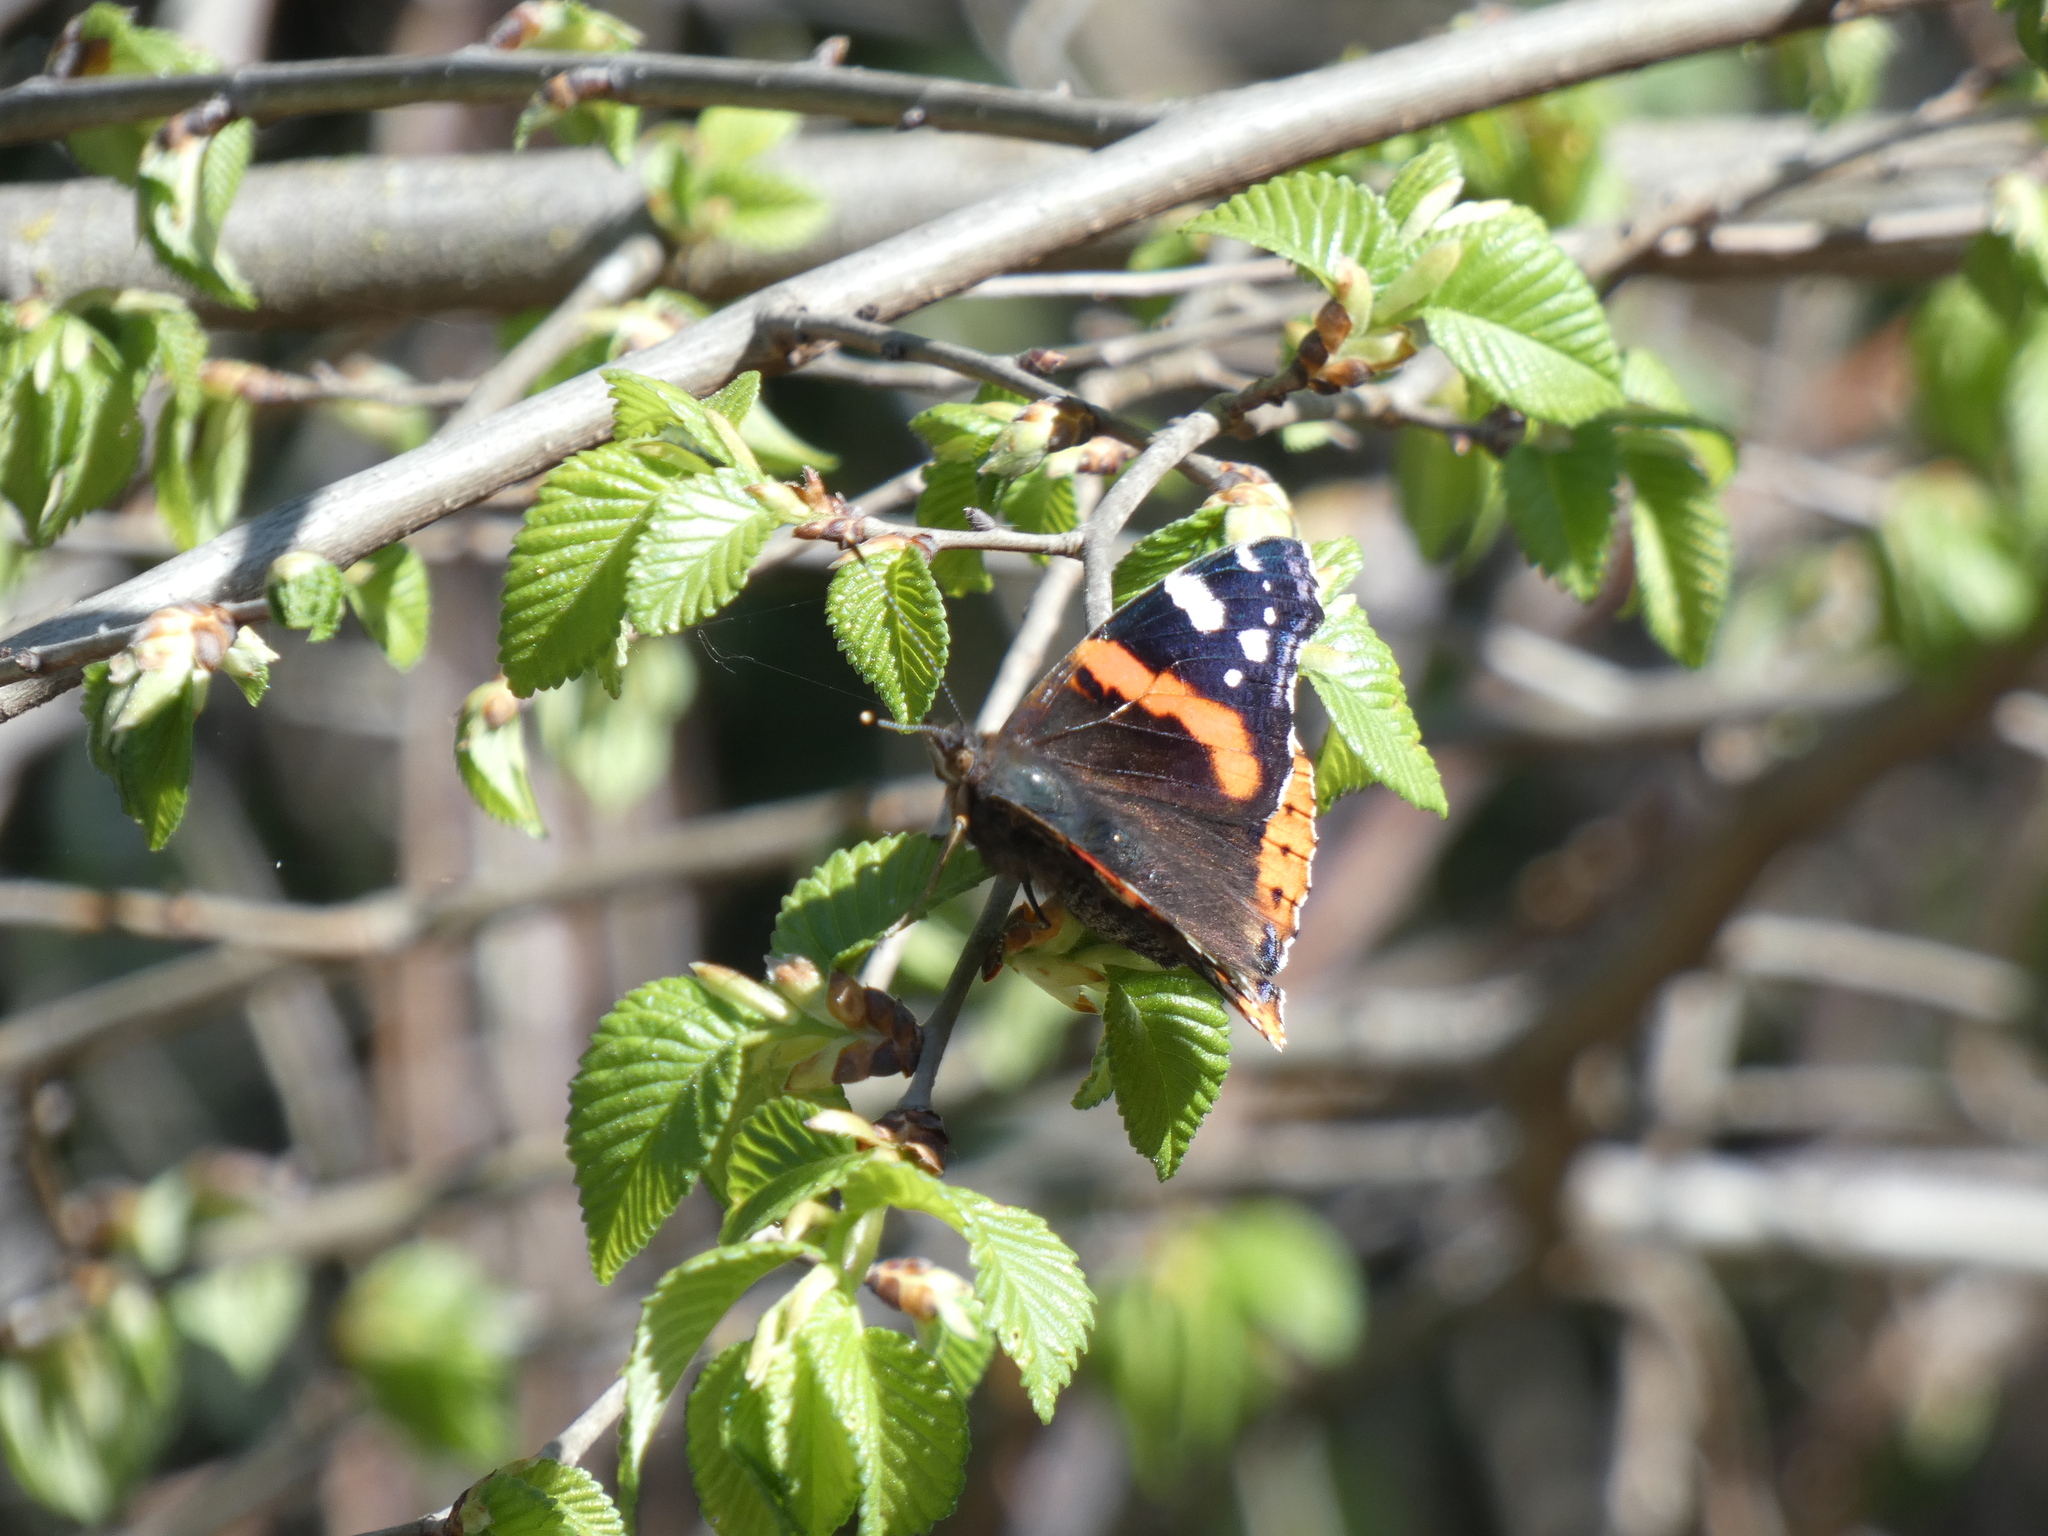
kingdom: Animalia
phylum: Arthropoda
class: Insecta
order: Lepidoptera
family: Nymphalidae
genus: Vanessa
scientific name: Vanessa atalanta
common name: Red admiral
